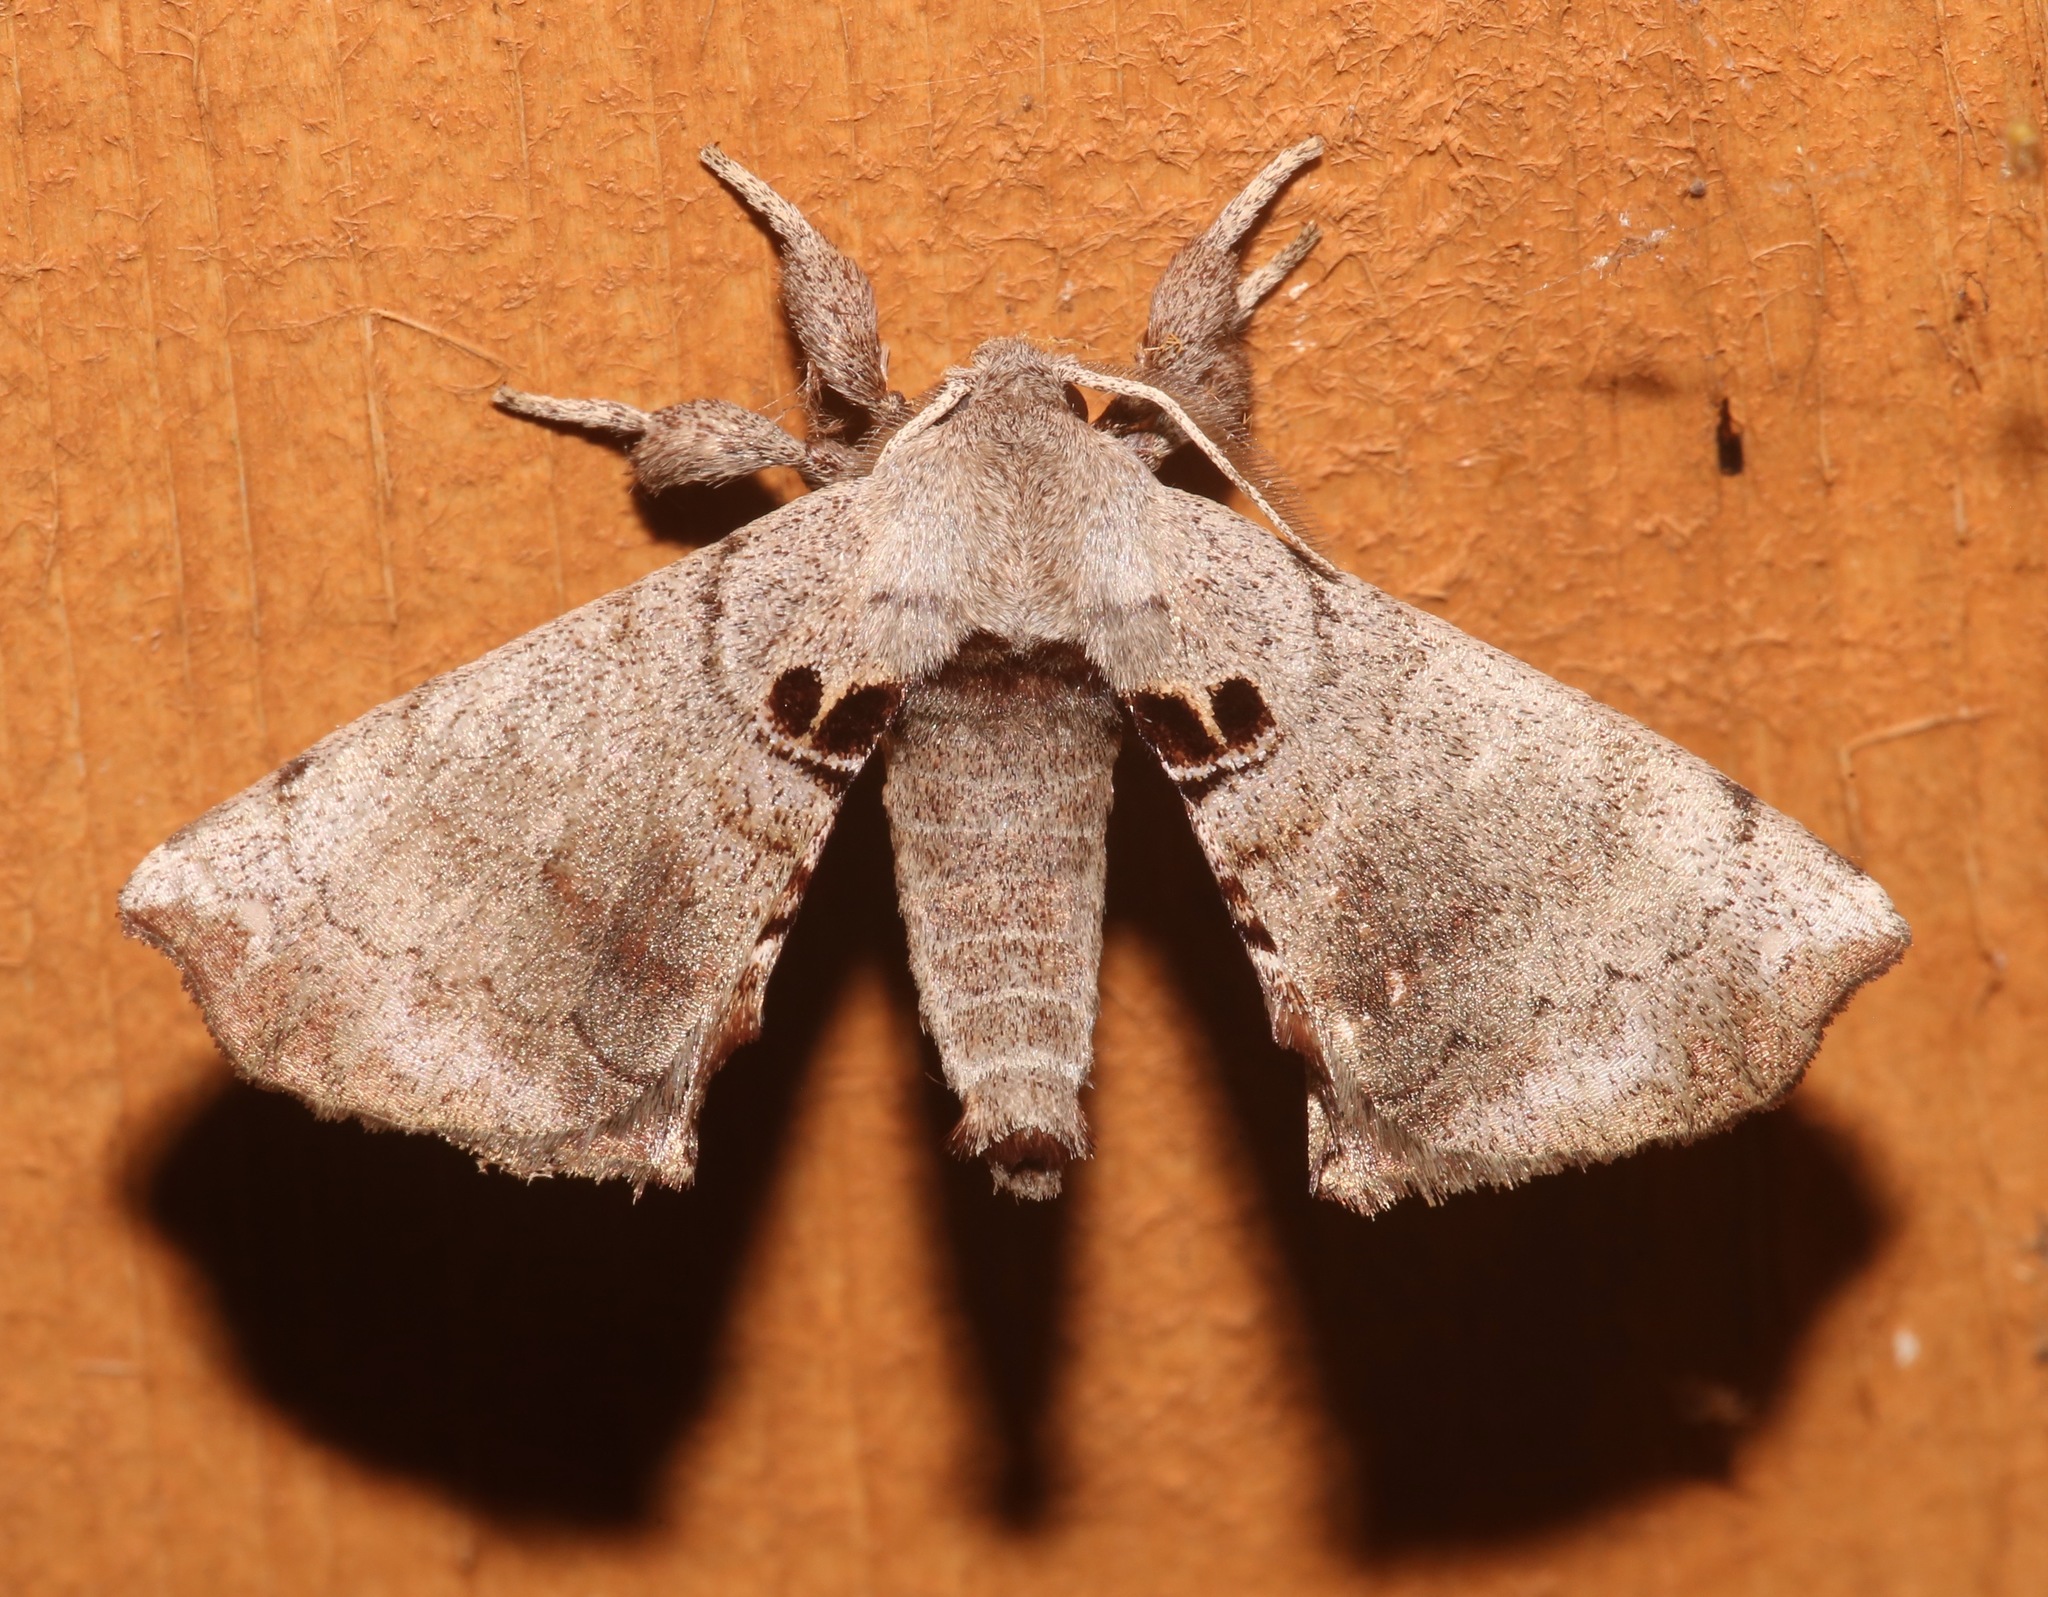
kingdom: Animalia
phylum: Arthropoda
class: Insecta
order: Lepidoptera
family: Apatelodidae
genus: Hygrochroa
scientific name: Hygrochroa Apatelodes torrefacta
